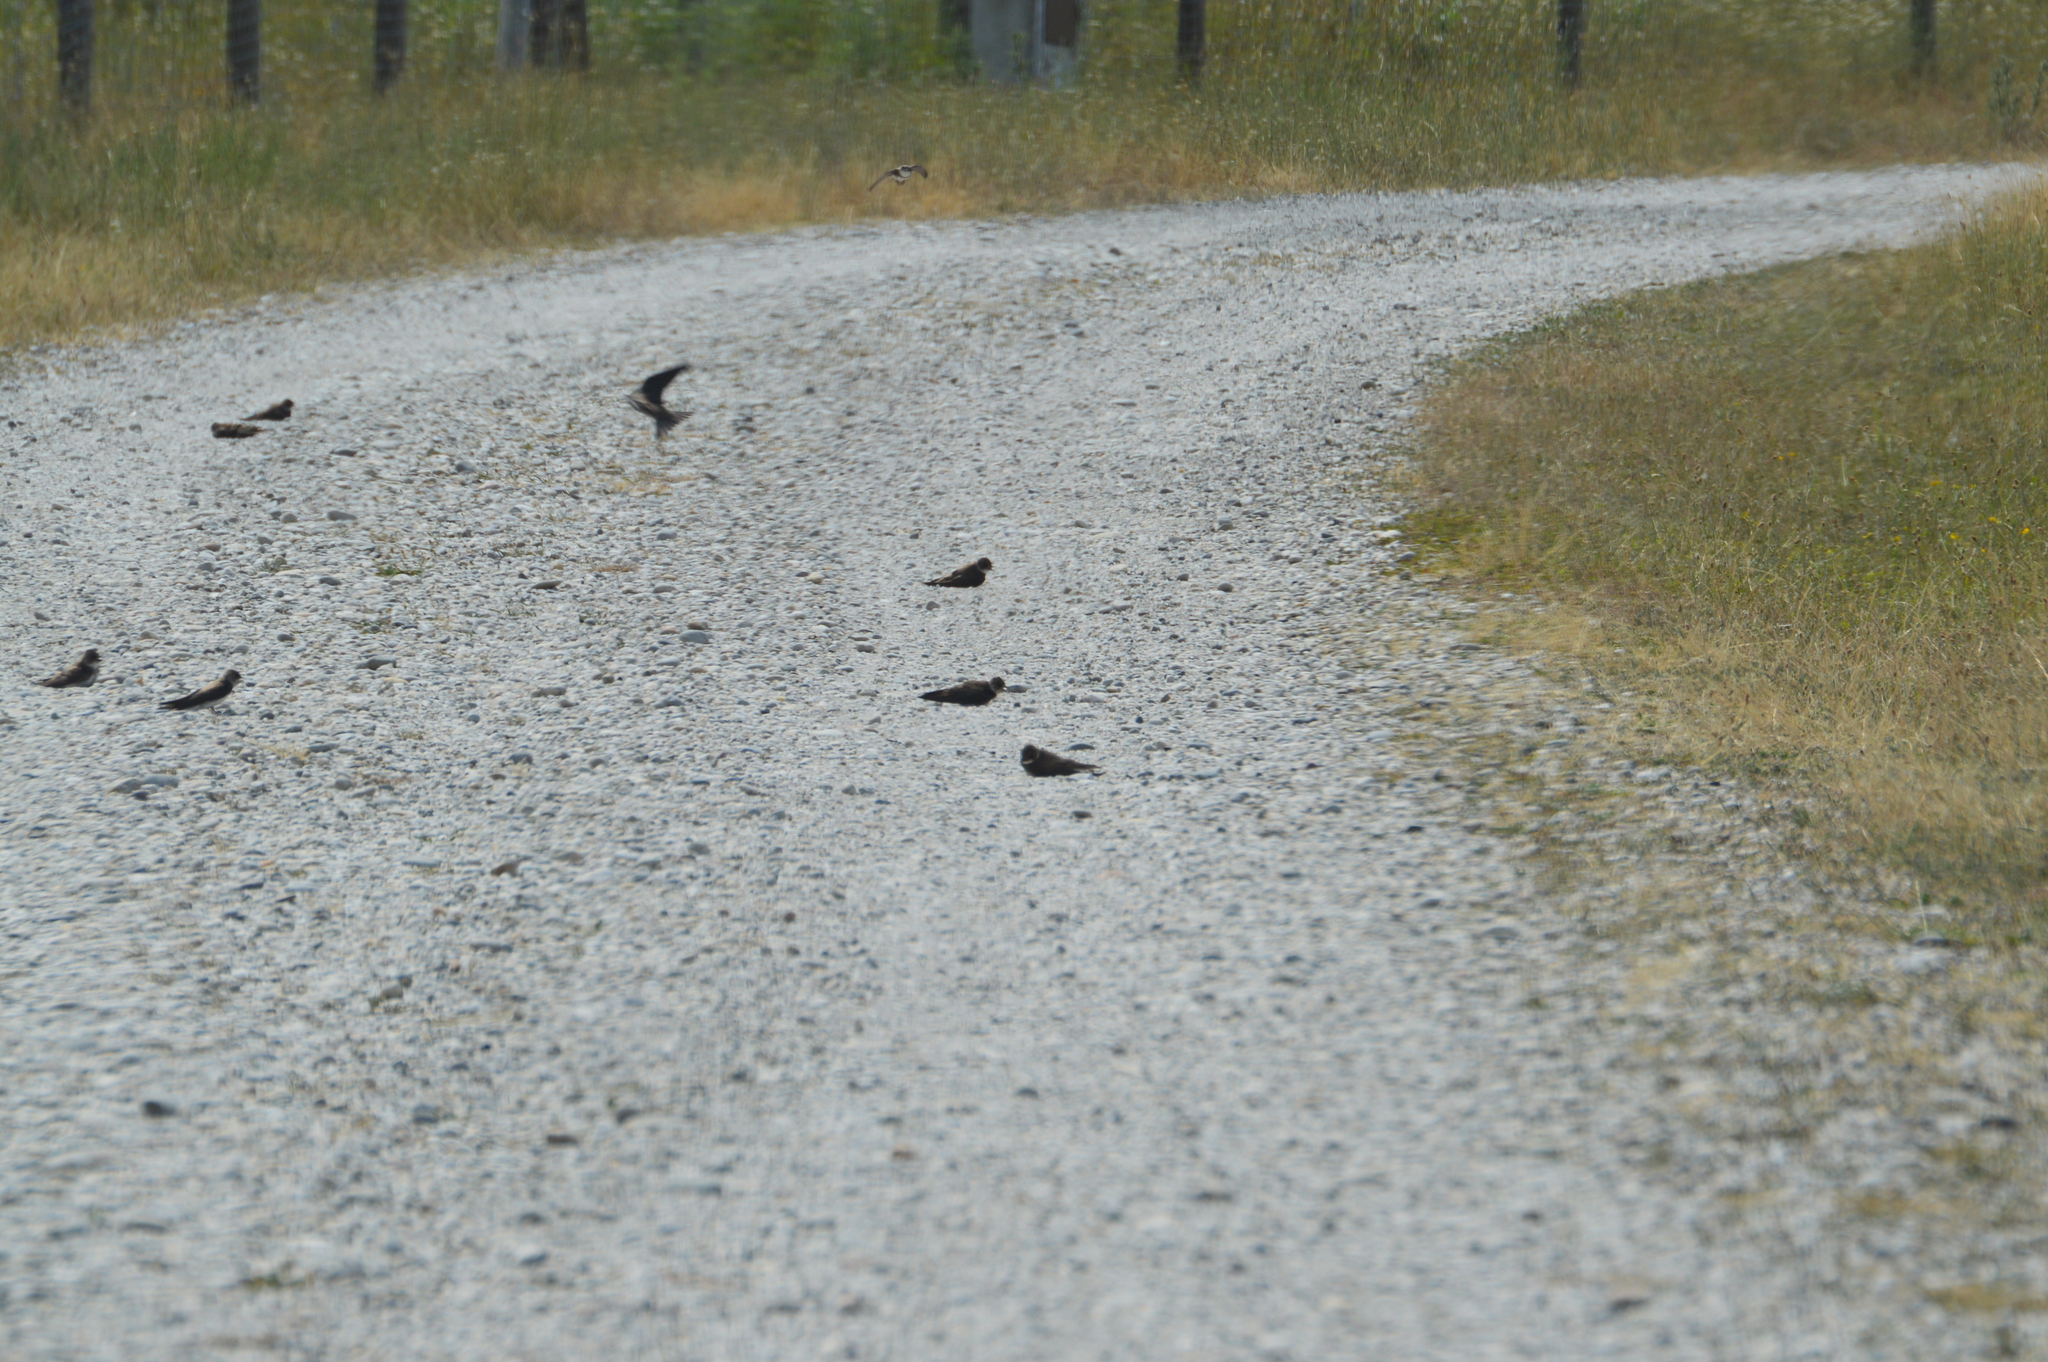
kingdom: Animalia
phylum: Chordata
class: Aves
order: Passeriformes
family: Hirundinidae
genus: Riparia
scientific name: Riparia riparia
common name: Sand martin
